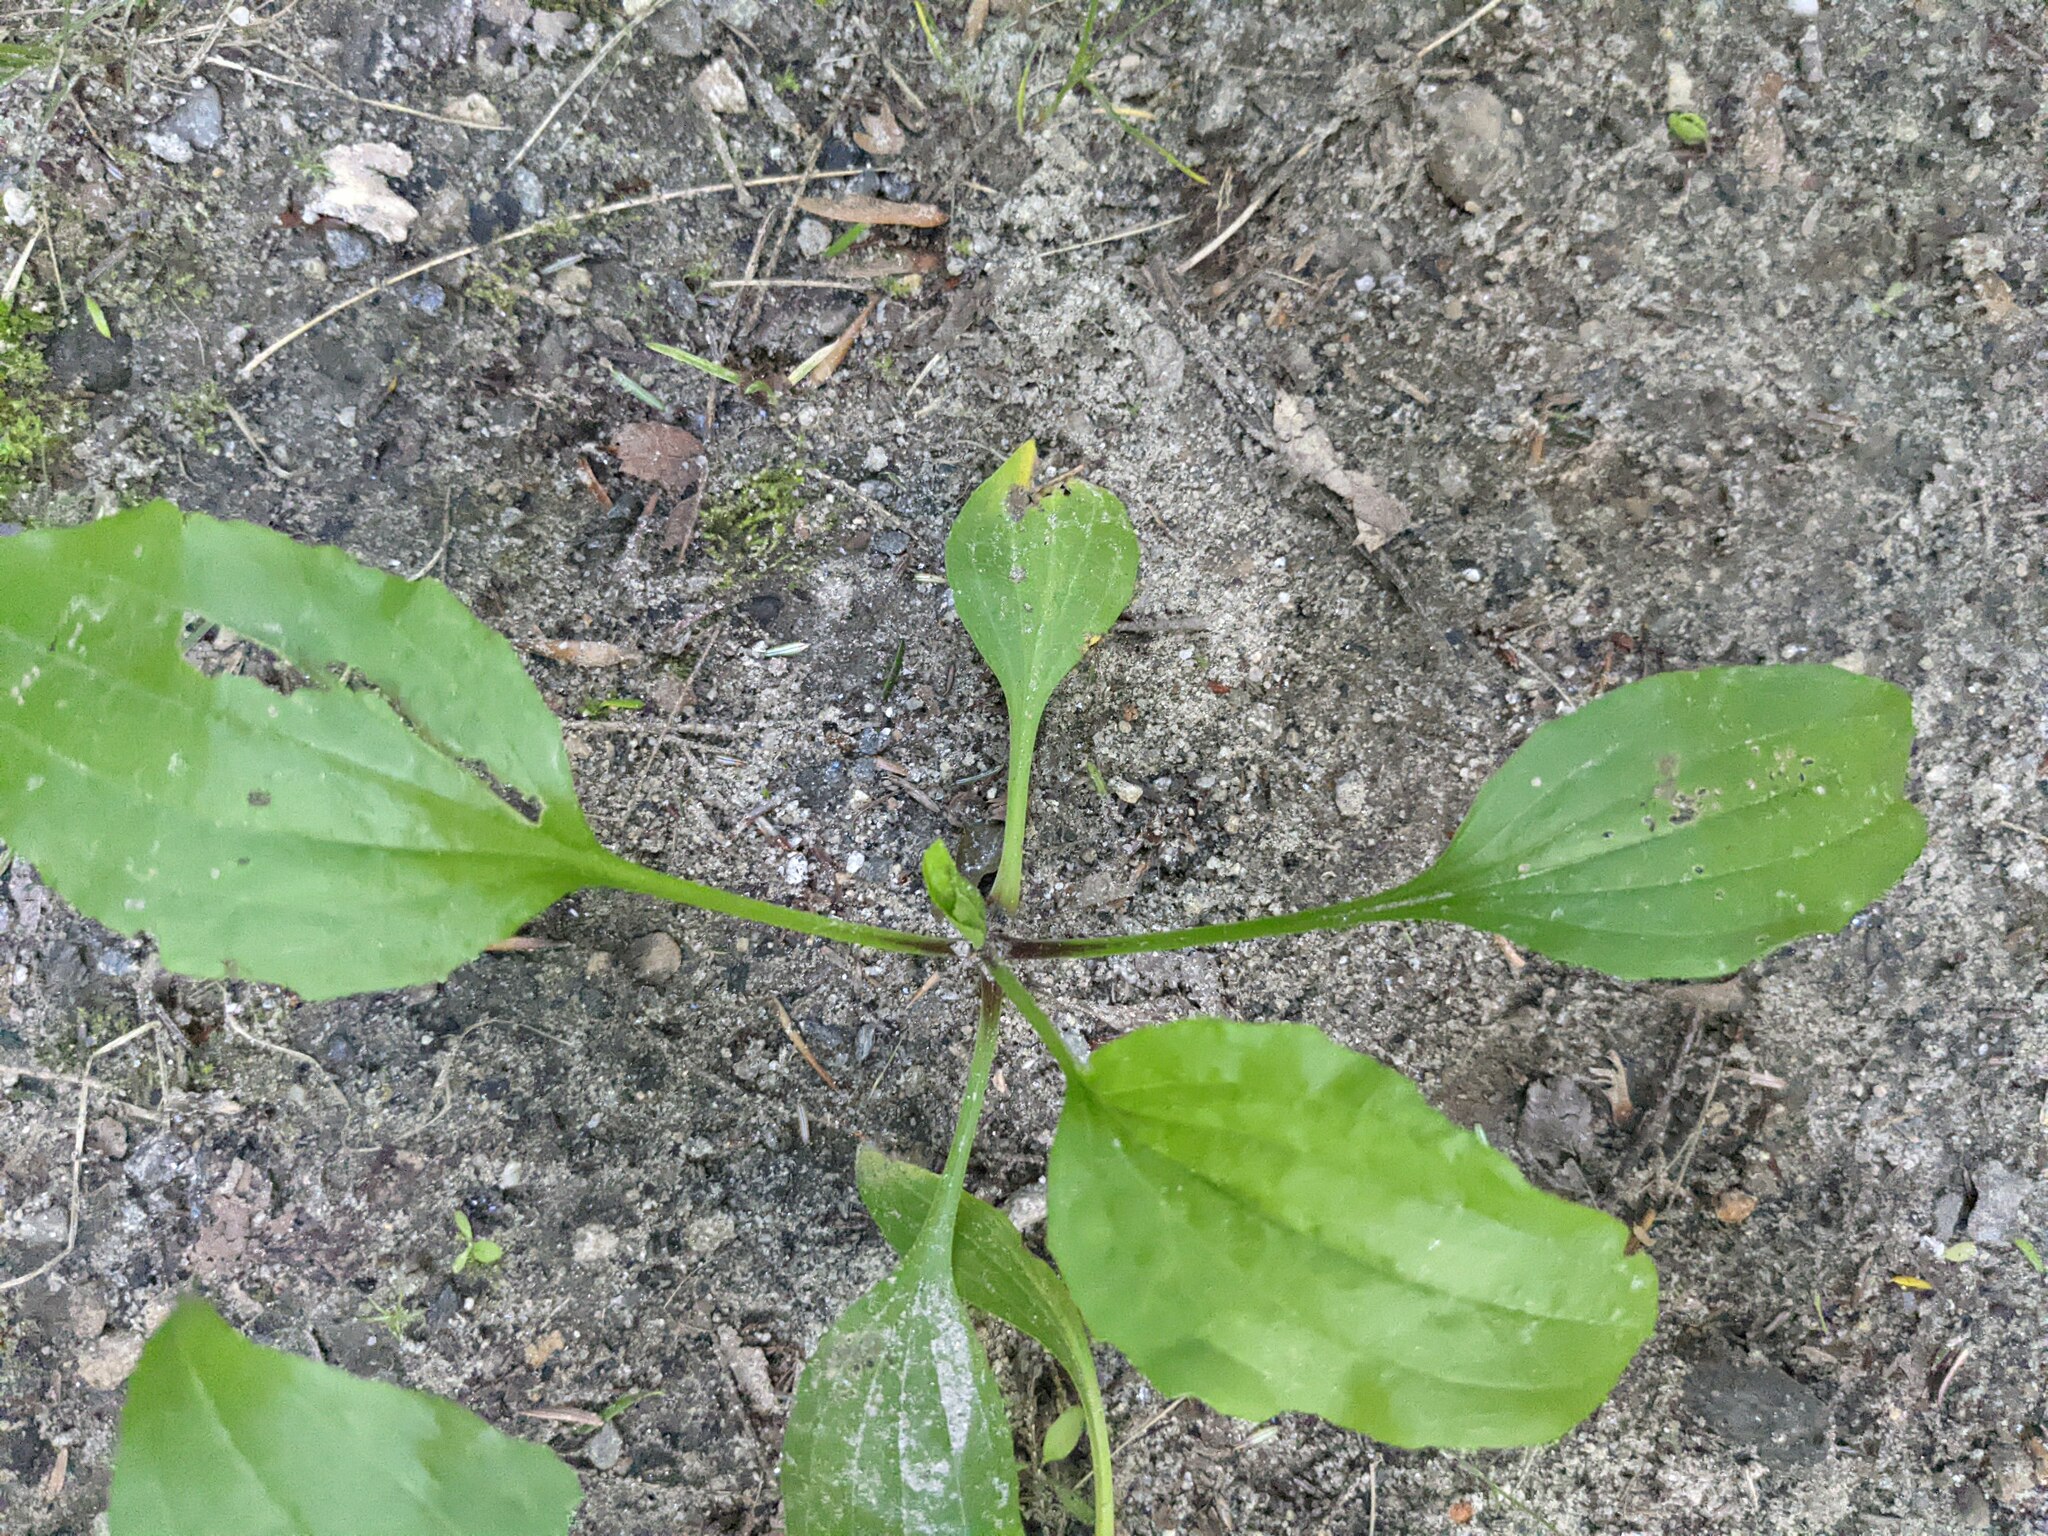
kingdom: Plantae
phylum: Tracheophyta
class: Magnoliopsida
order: Lamiales
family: Plantaginaceae
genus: Plantago
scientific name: Plantago rugelii
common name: American plantain
